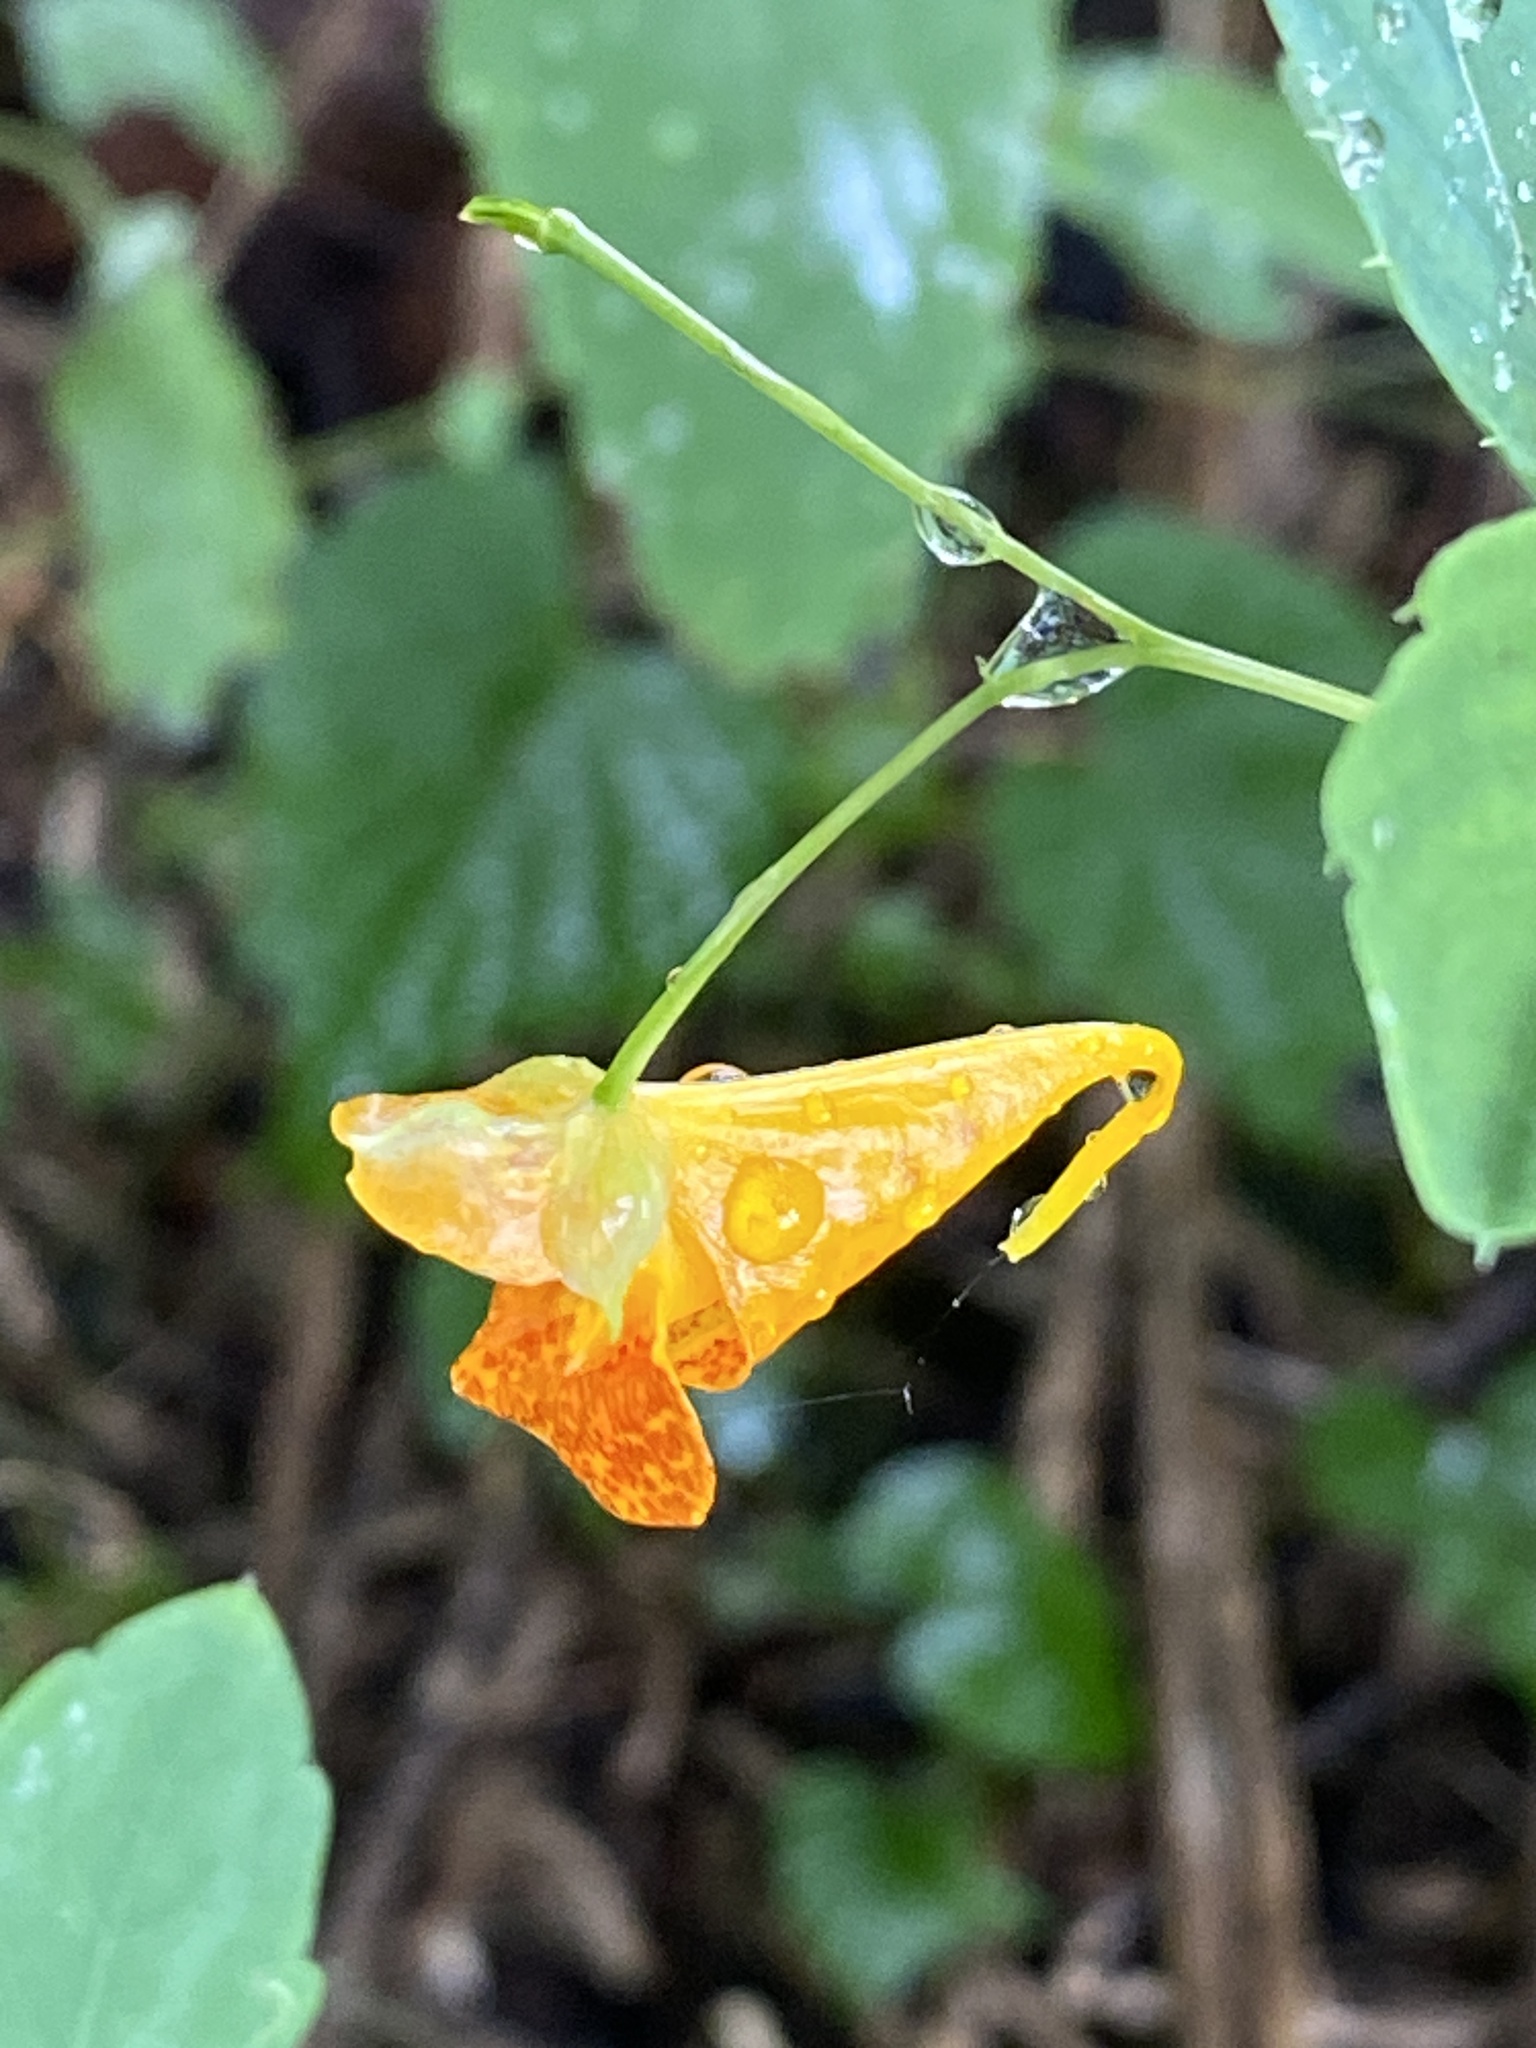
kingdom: Plantae
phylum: Tracheophyta
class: Magnoliopsida
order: Ericales
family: Balsaminaceae
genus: Impatiens
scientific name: Impatiens capensis
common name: Orange balsam
